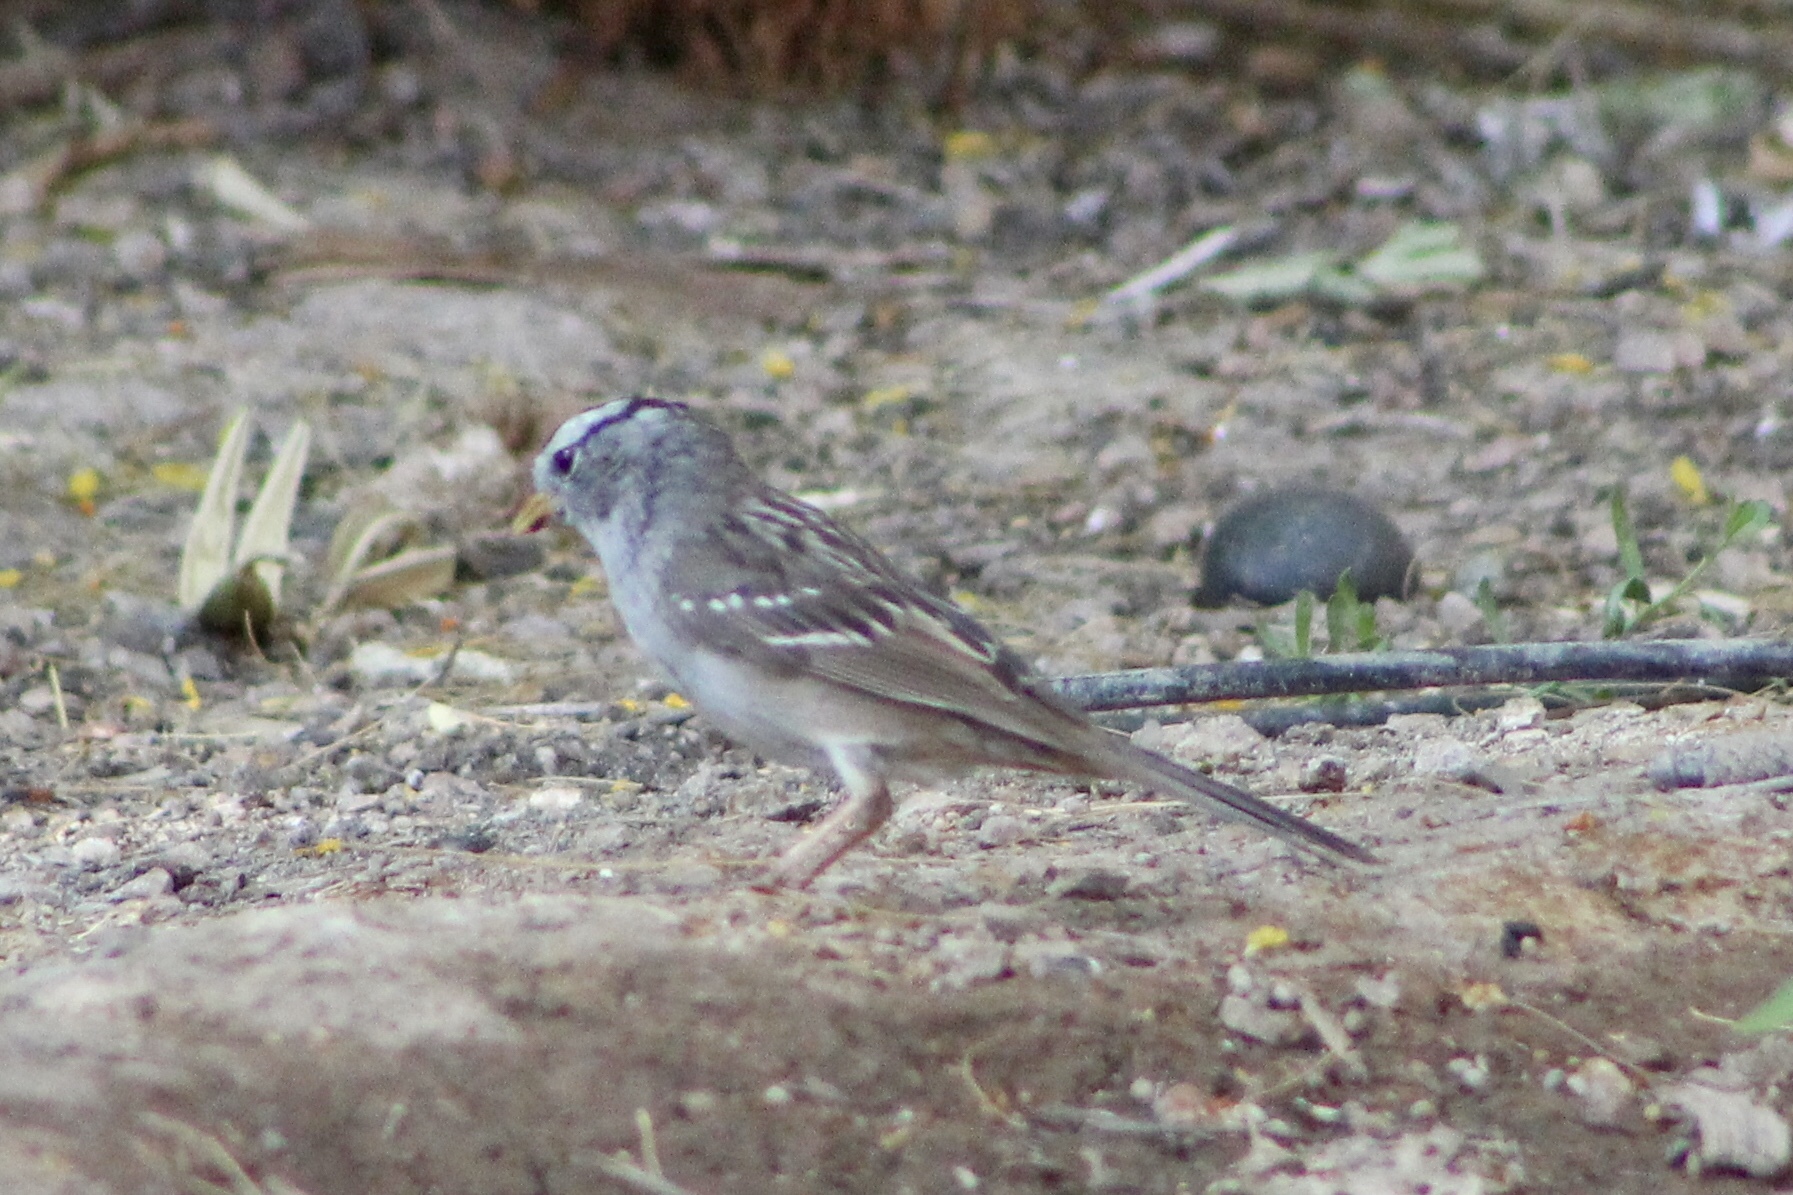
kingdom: Animalia
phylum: Chordata
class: Aves
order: Passeriformes
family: Passerellidae
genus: Zonotrichia
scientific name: Zonotrichia leucophrys
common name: White-crowned sparrow
